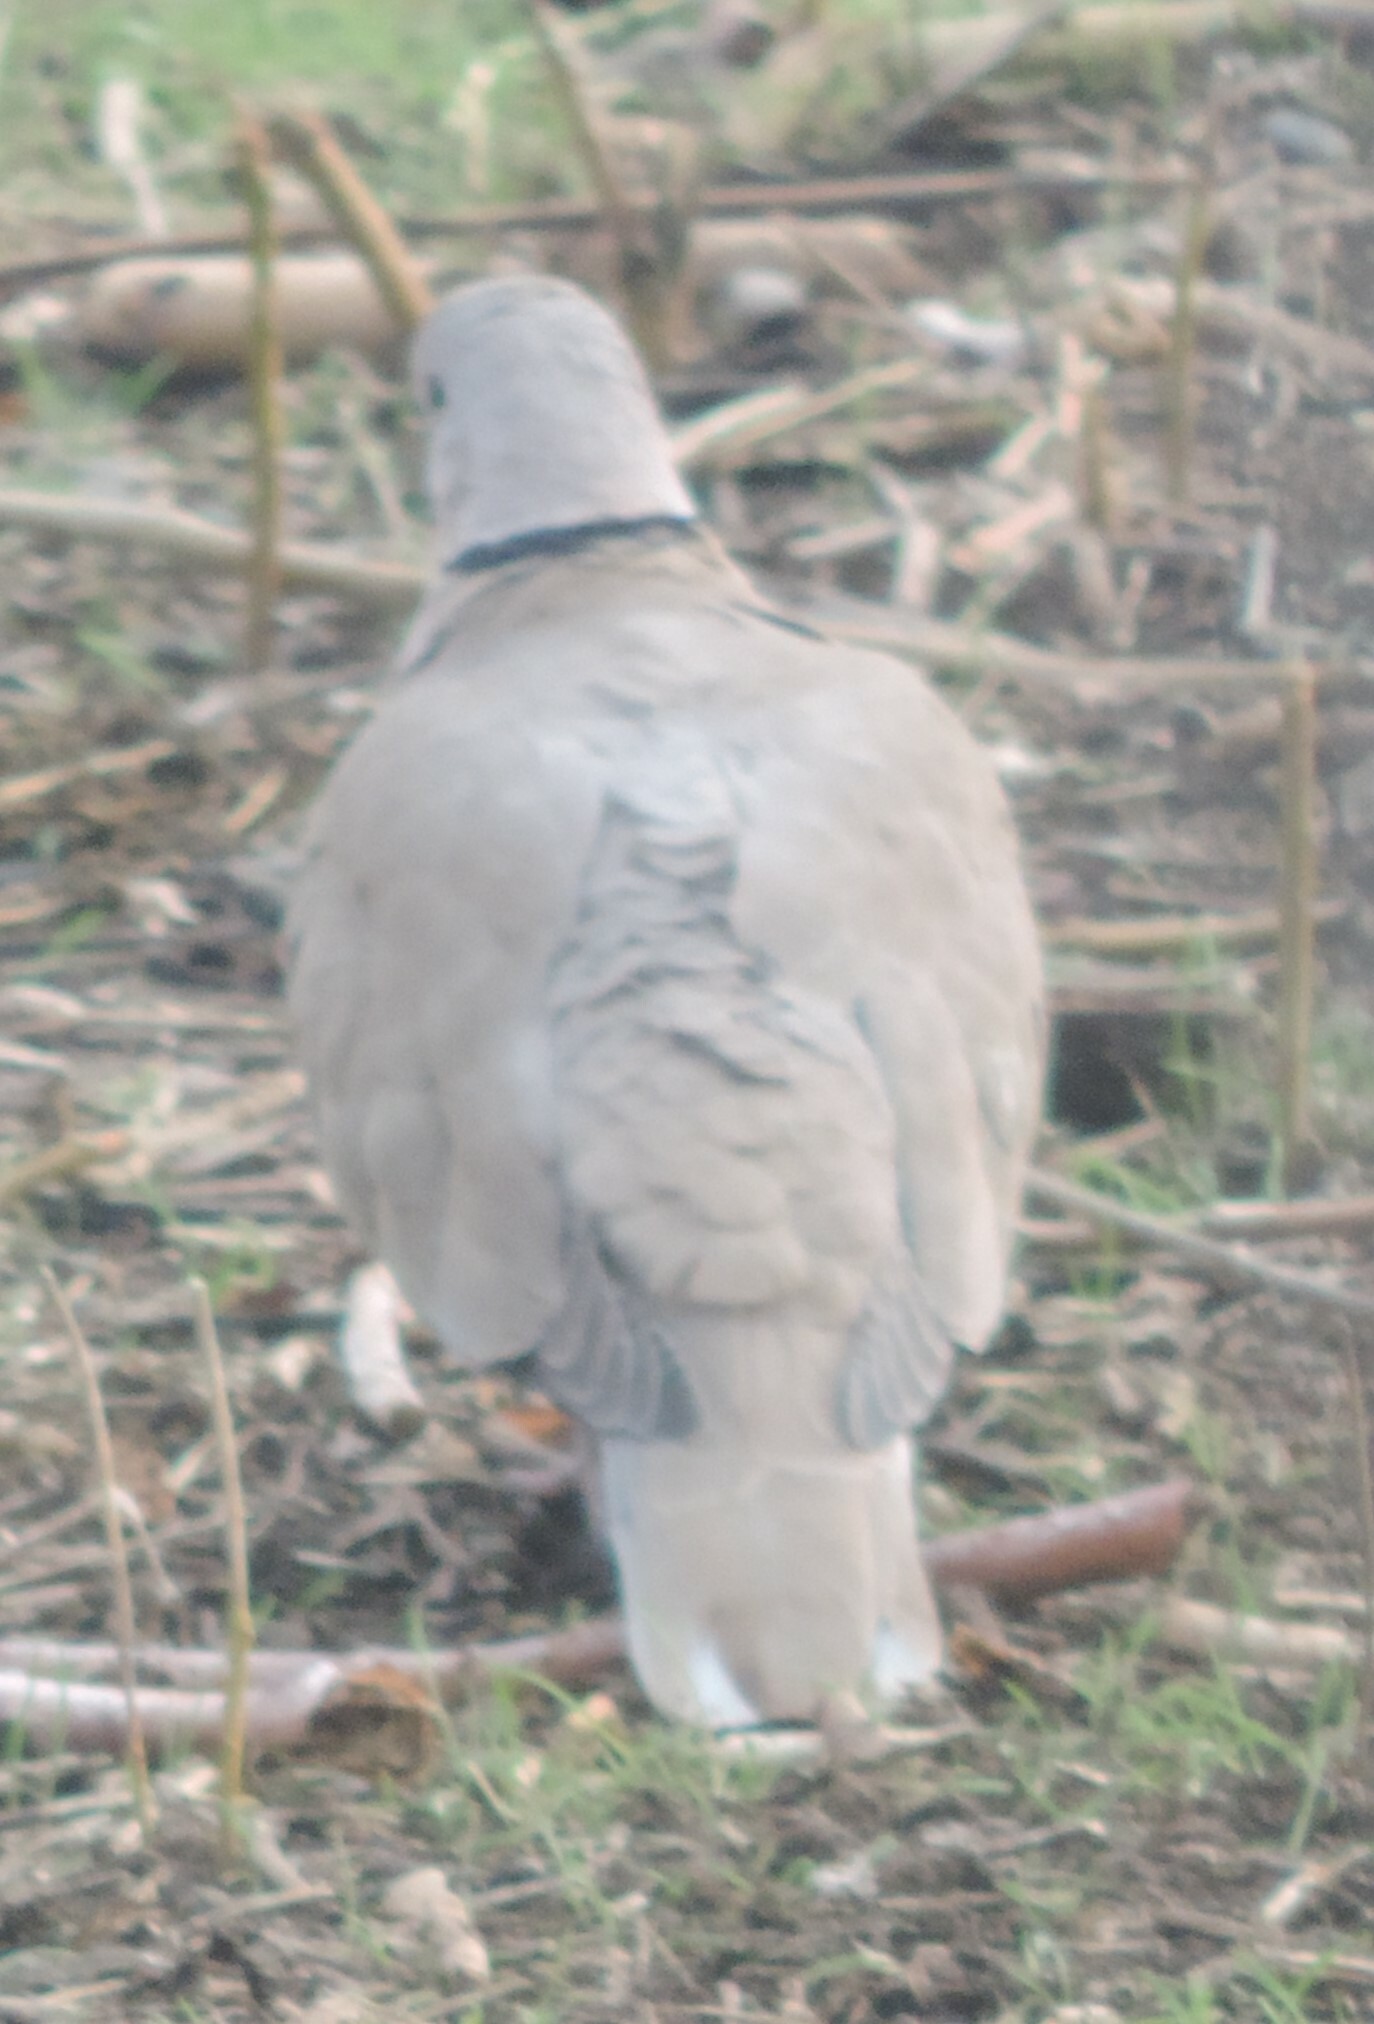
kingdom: Animalia
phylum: Chordata
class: Aves
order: Columbiformes
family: Columbidae
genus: Streptopelia
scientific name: Streptopelia decaocto
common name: Eurasian collared dove
